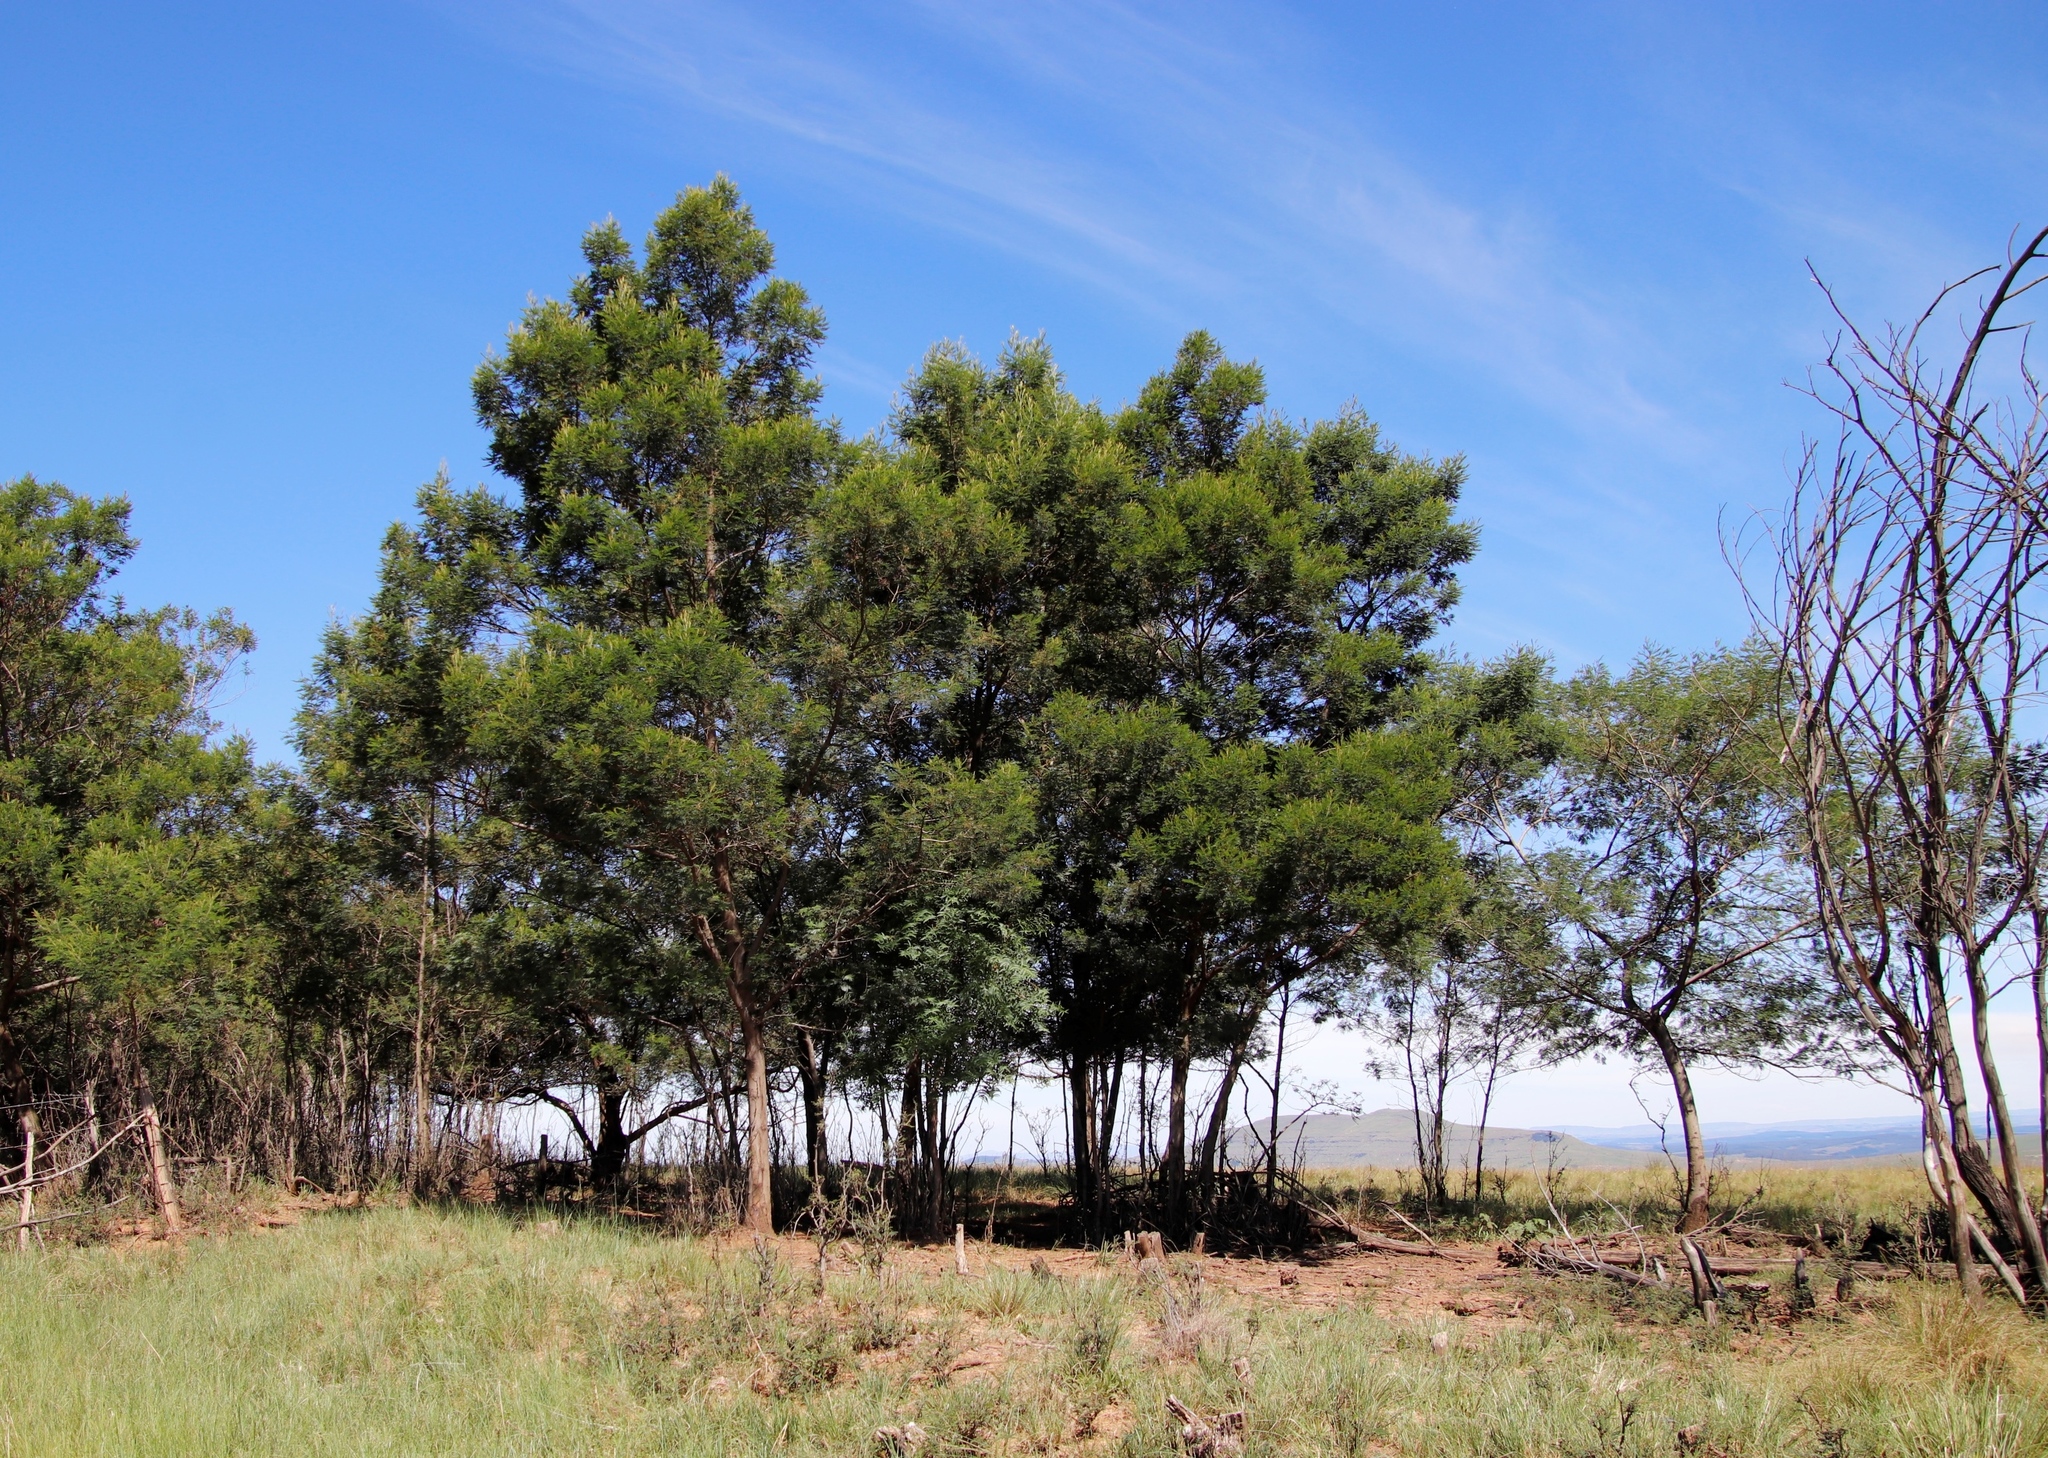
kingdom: Plantae
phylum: Tracheophyta
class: Magnoliopsida
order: Fabales
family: Fabaceae
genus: Acacia
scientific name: Acacia mearnsii
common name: Black wattle
